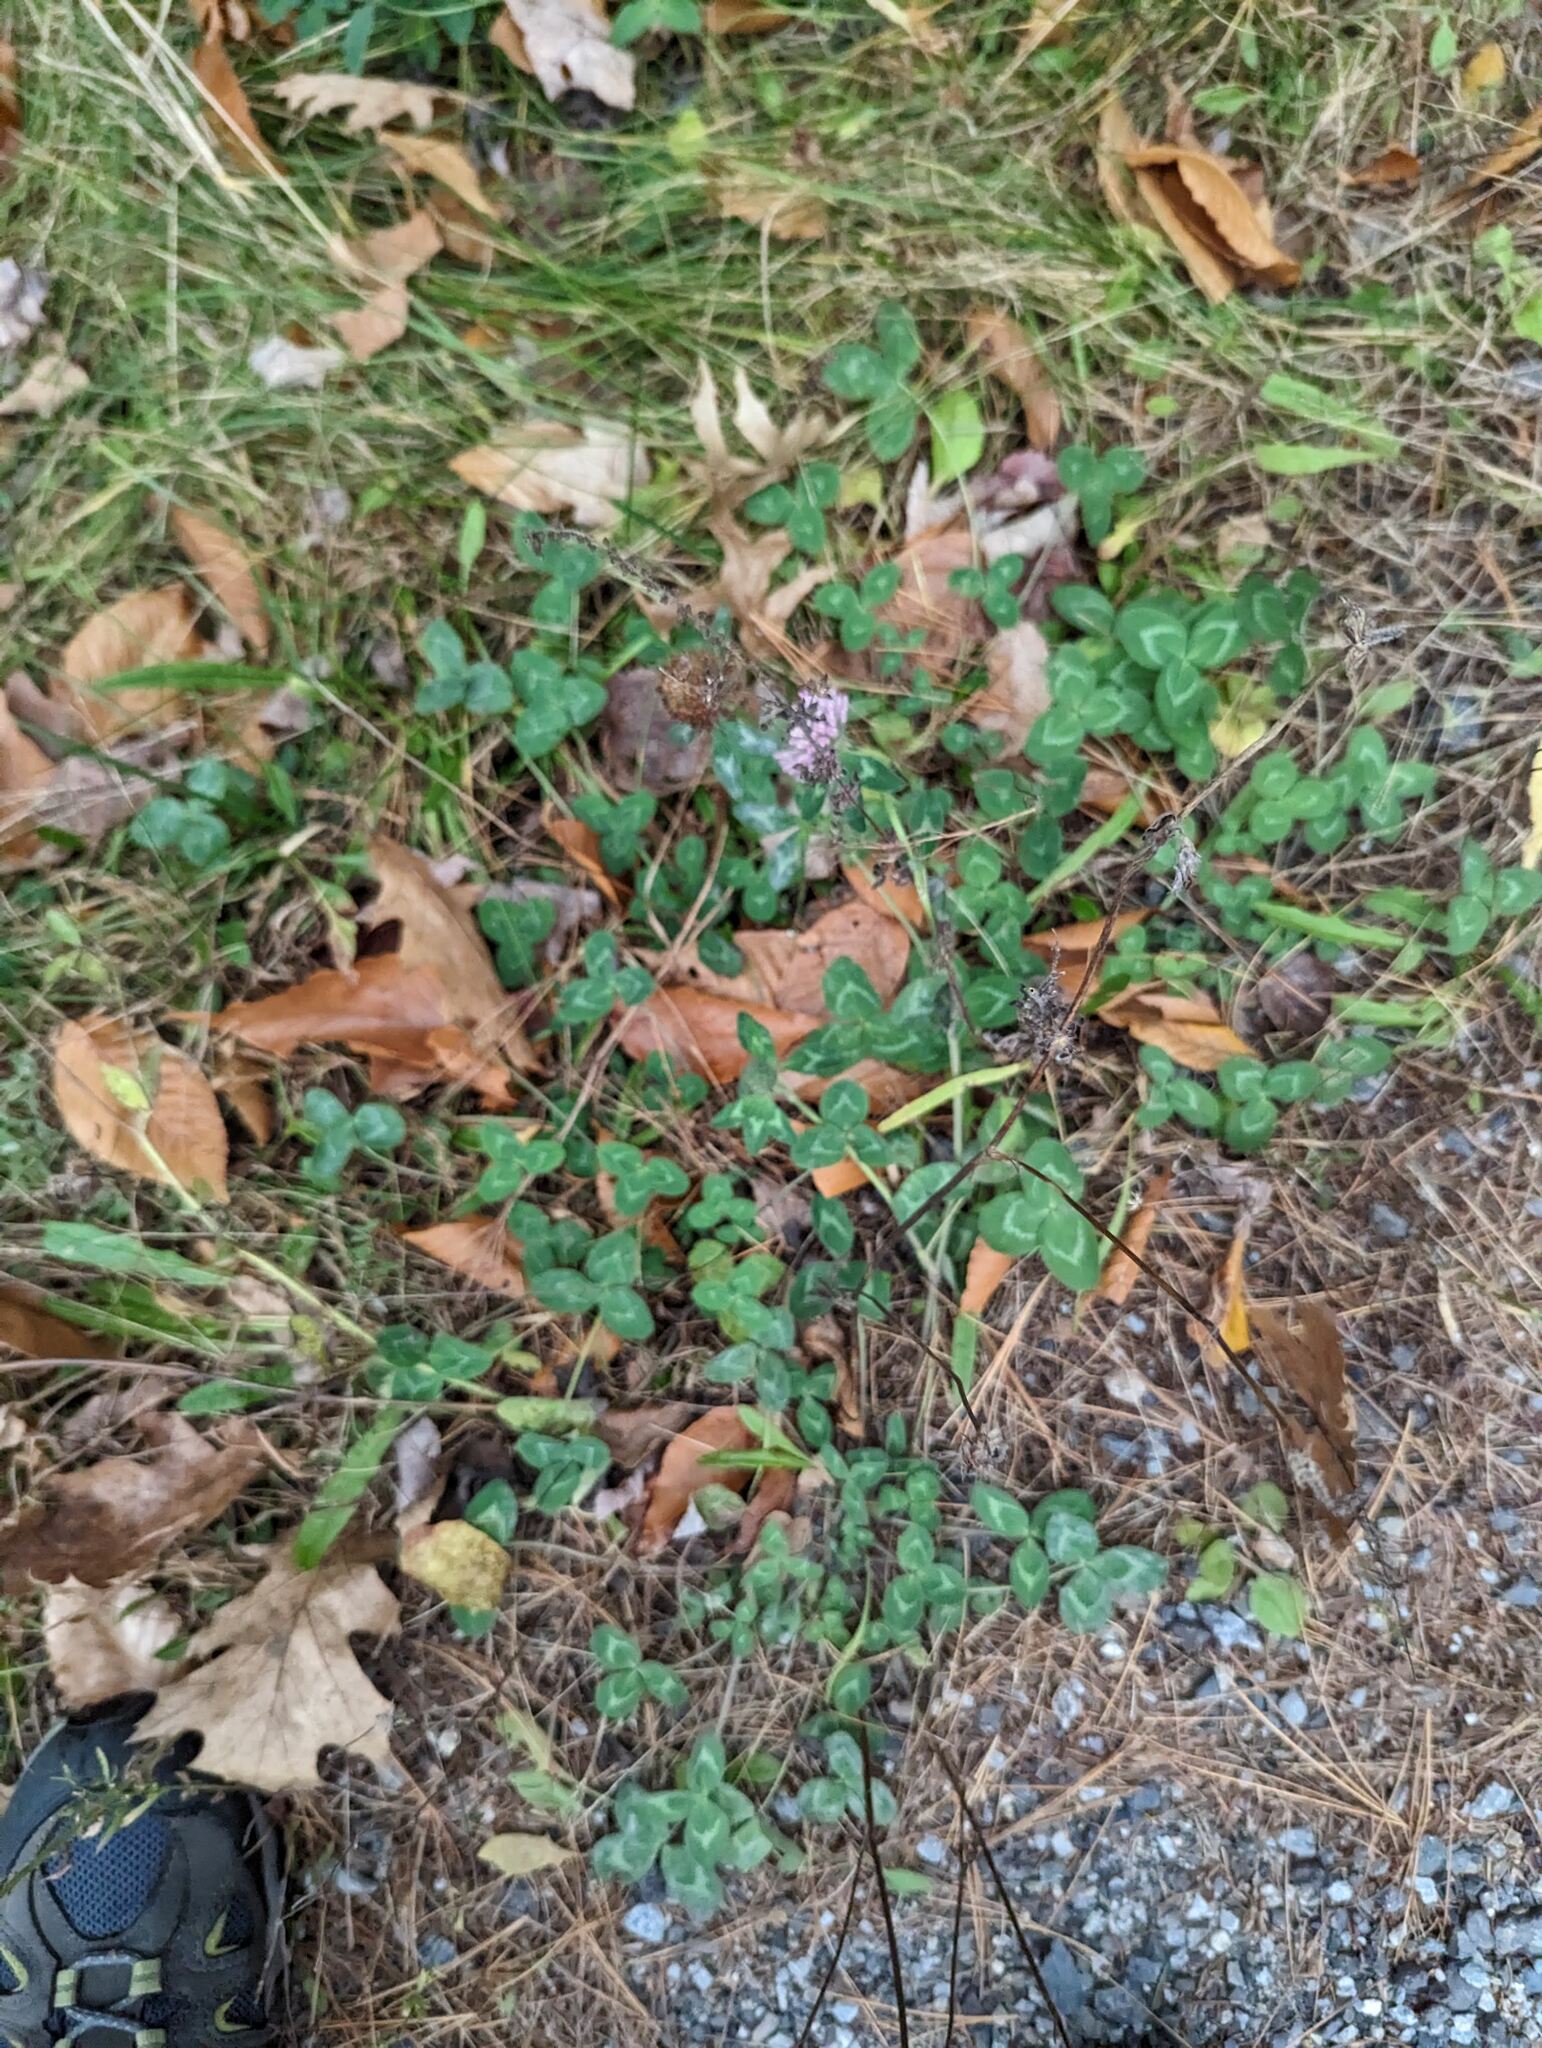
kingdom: Plantae
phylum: Tracheophyta
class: Magnoliopsida
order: Fabales
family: Fabaceae
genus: Trifolium
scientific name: Trifolium pratense
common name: Red clover
